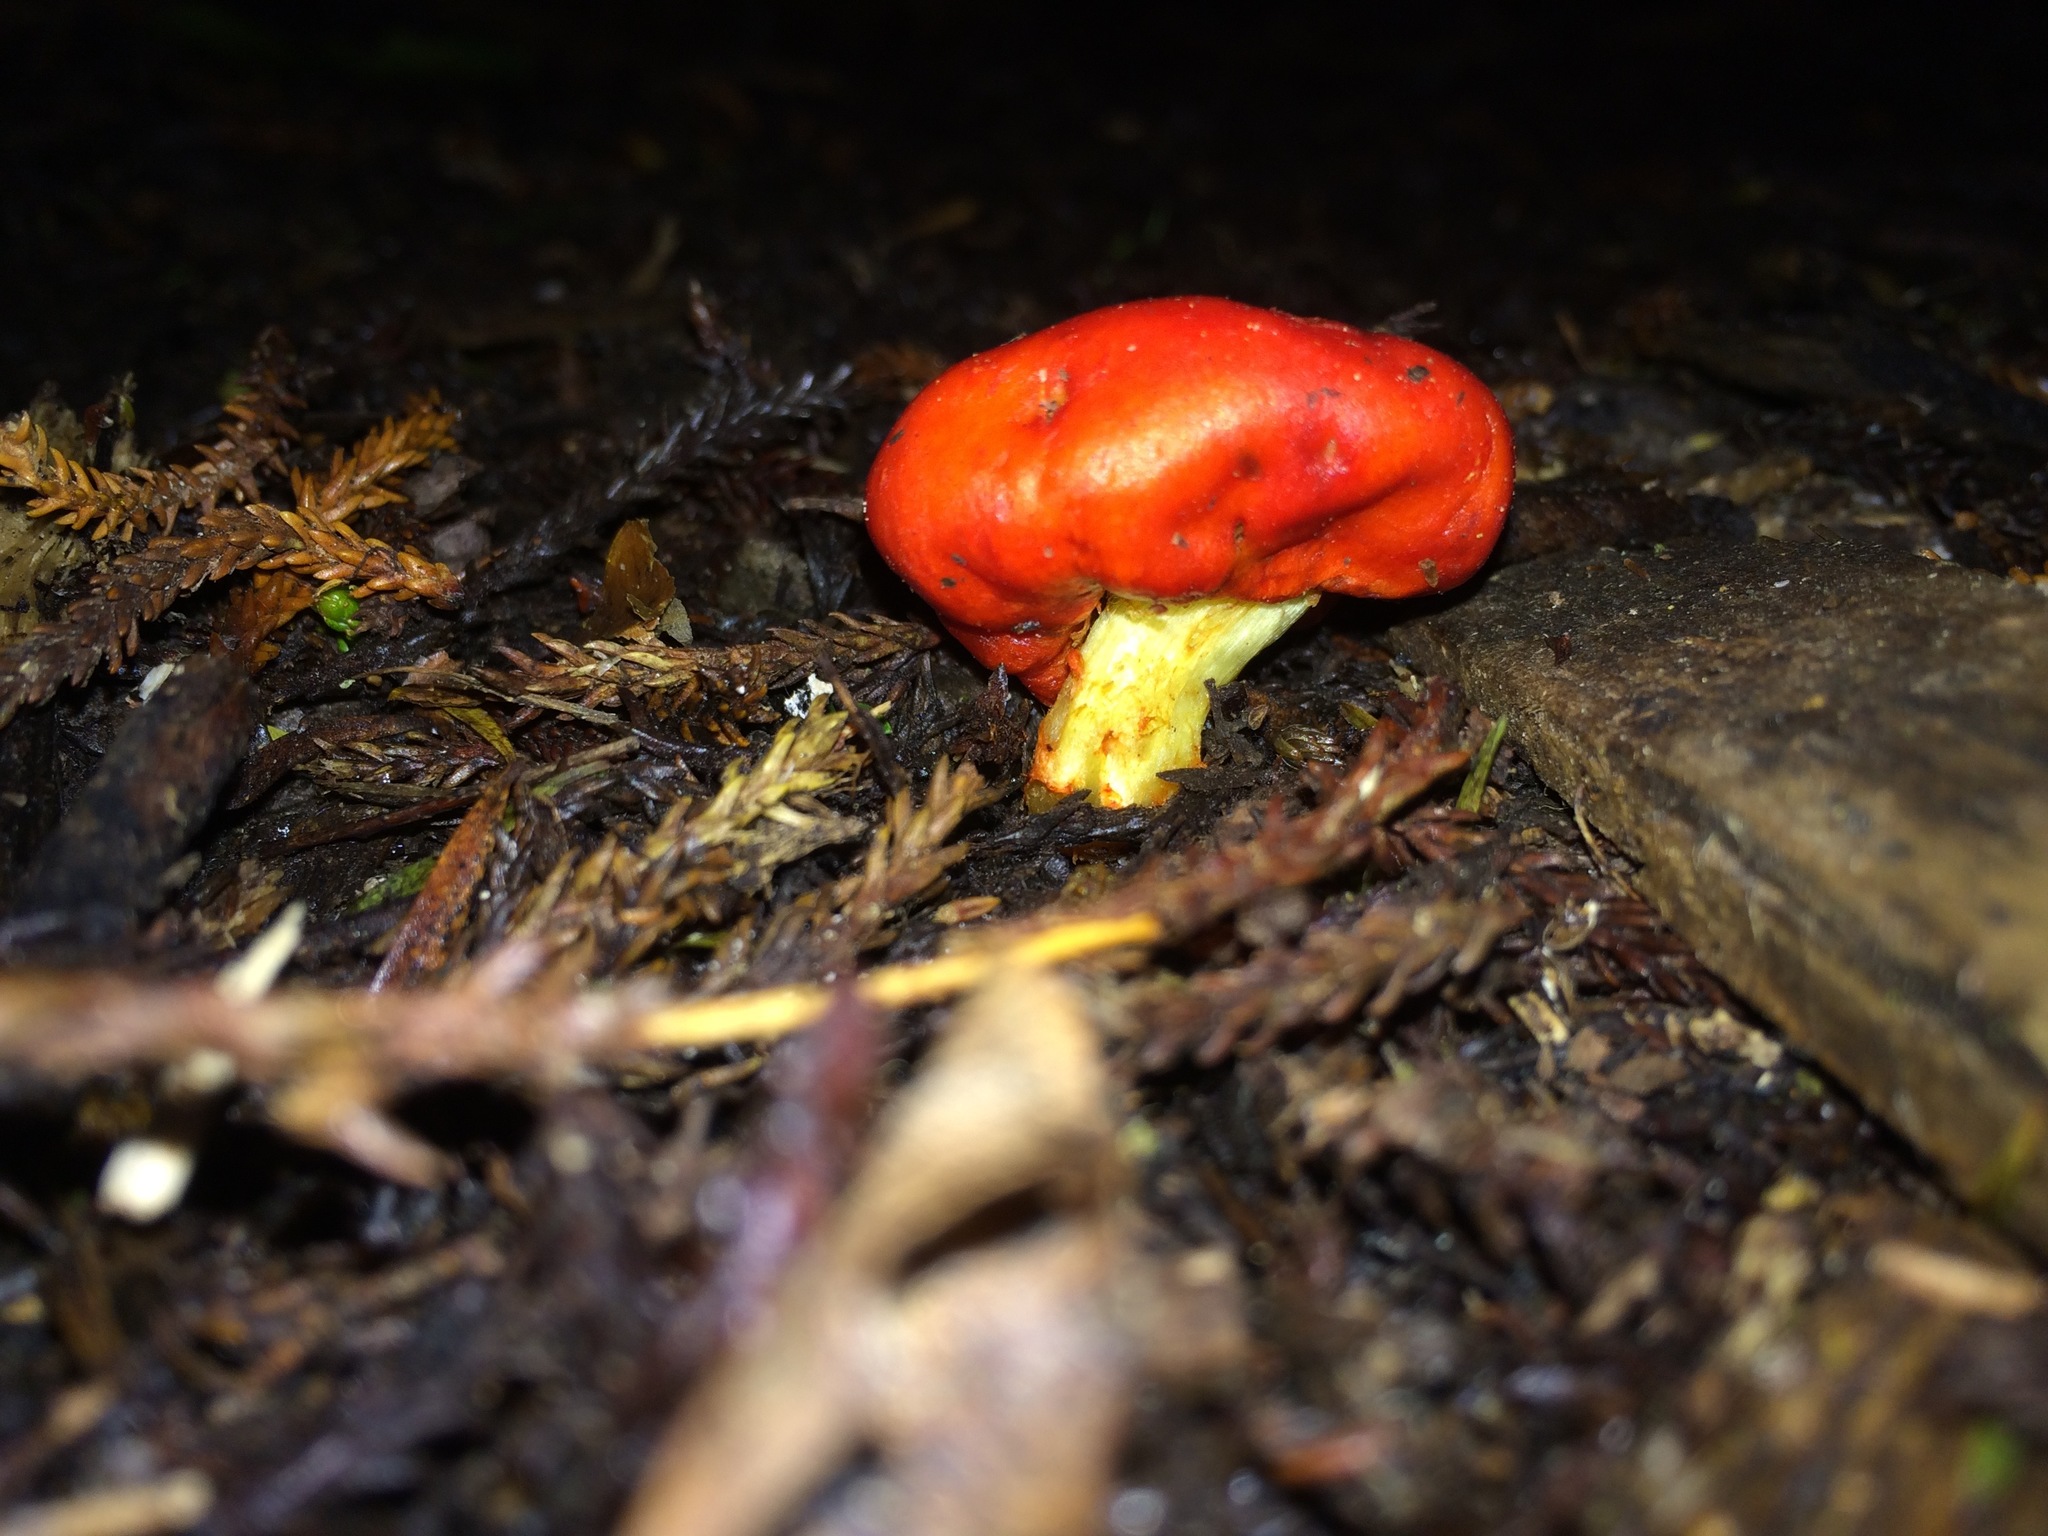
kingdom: Fungi
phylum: Basidiomycota
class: Agaricomycetes
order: Agaricales
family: Strophariaceae
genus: Leratiomyces
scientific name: Leratiomyces erythrocephalus
